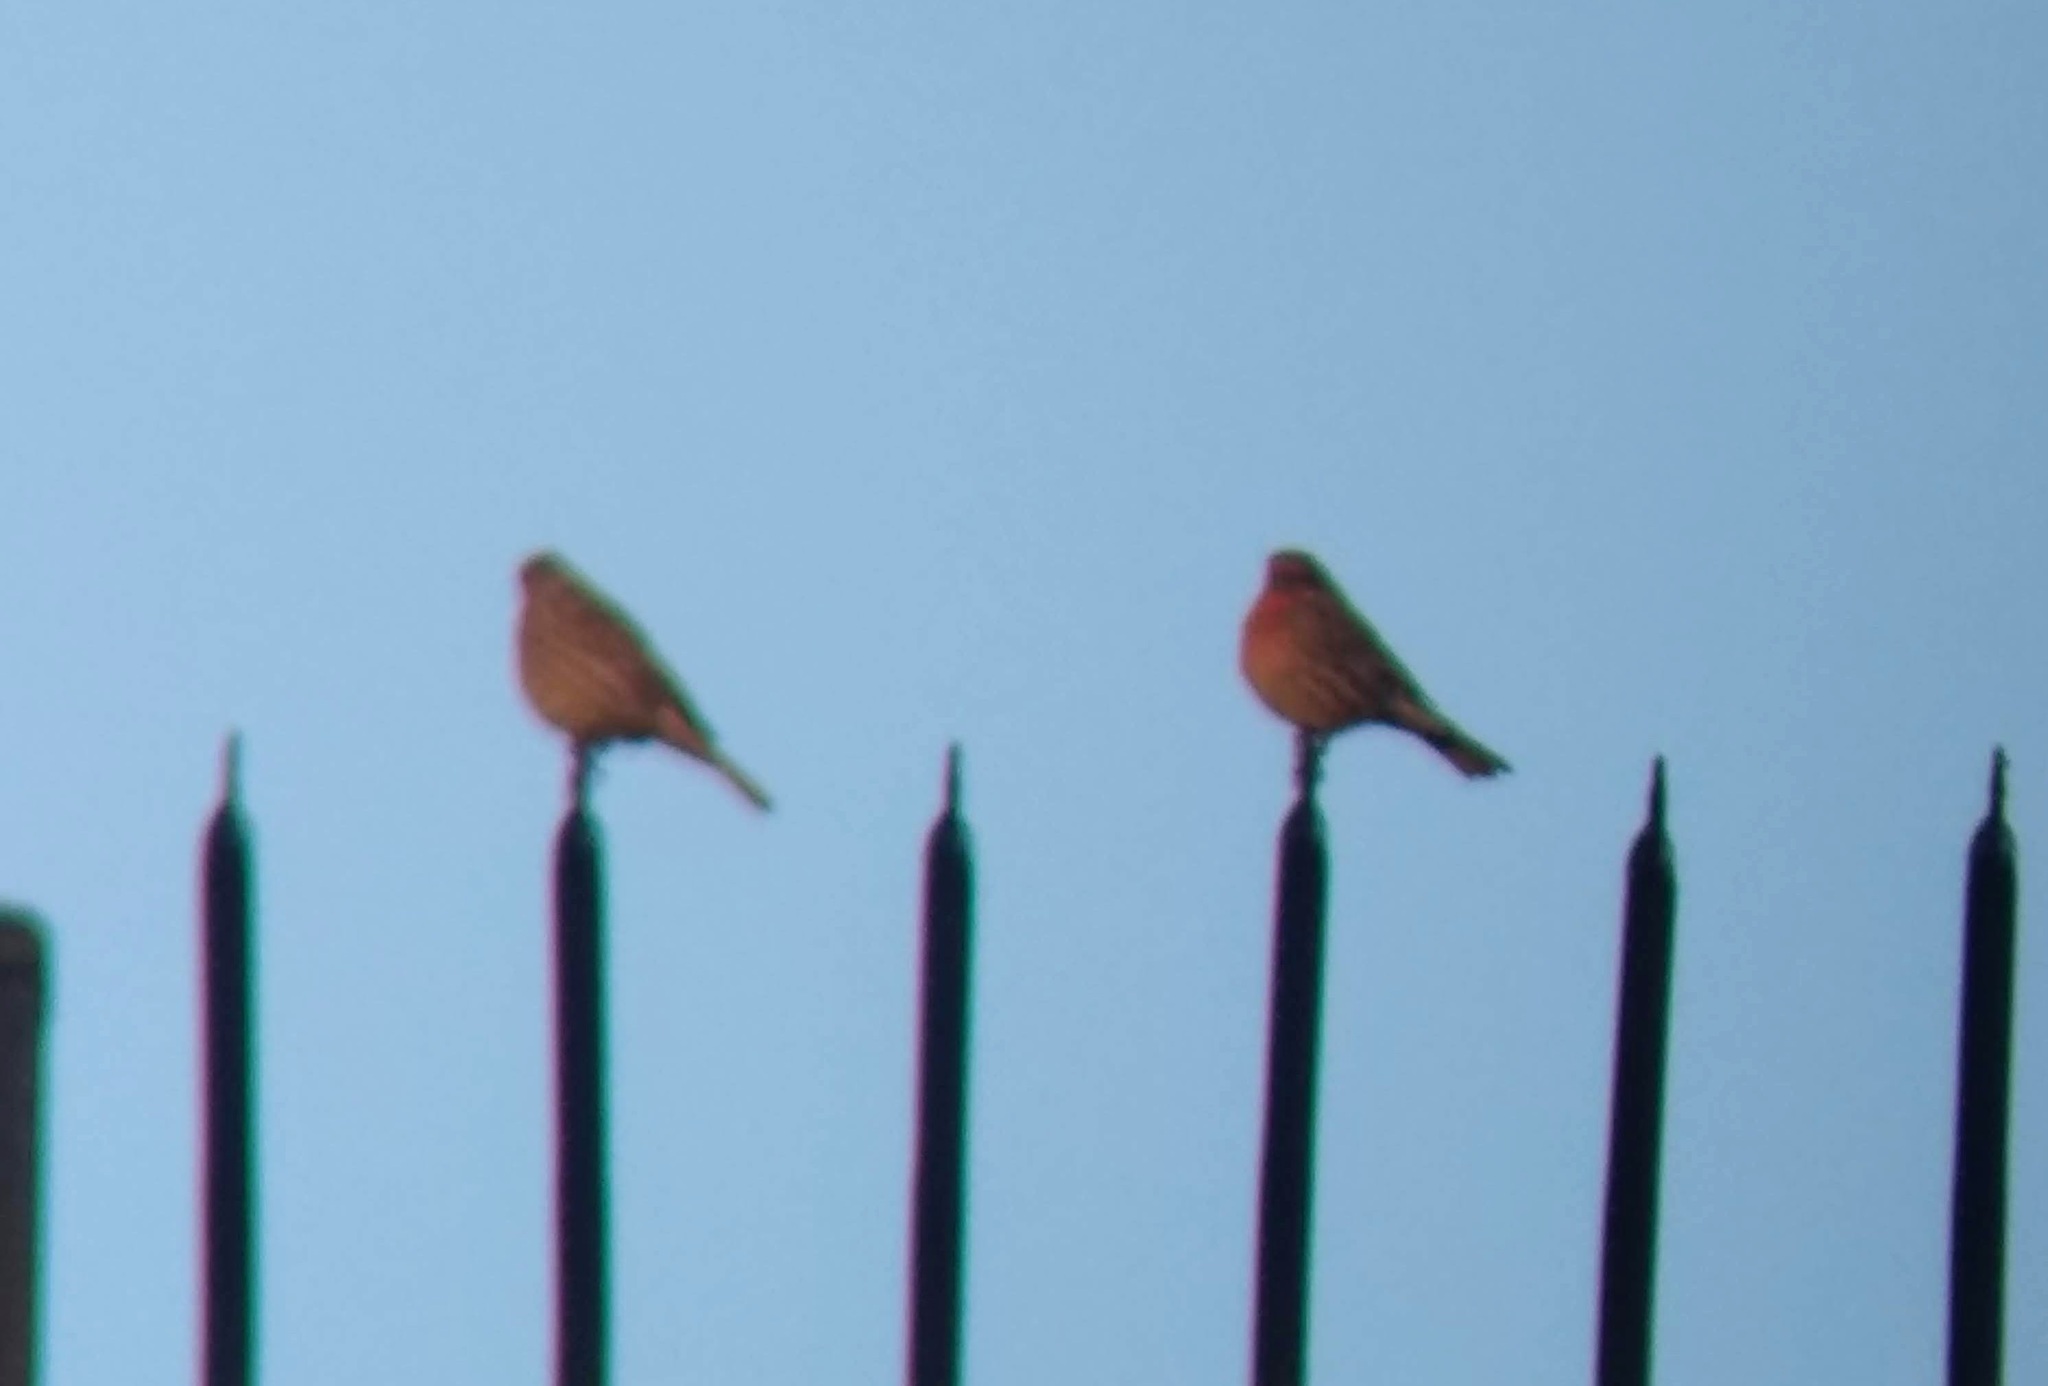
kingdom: Animalia
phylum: Chordata
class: Aves
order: Passeriformes
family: Fringillidae
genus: Haemorhous
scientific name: Haemorhous mexicanus
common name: House finch
